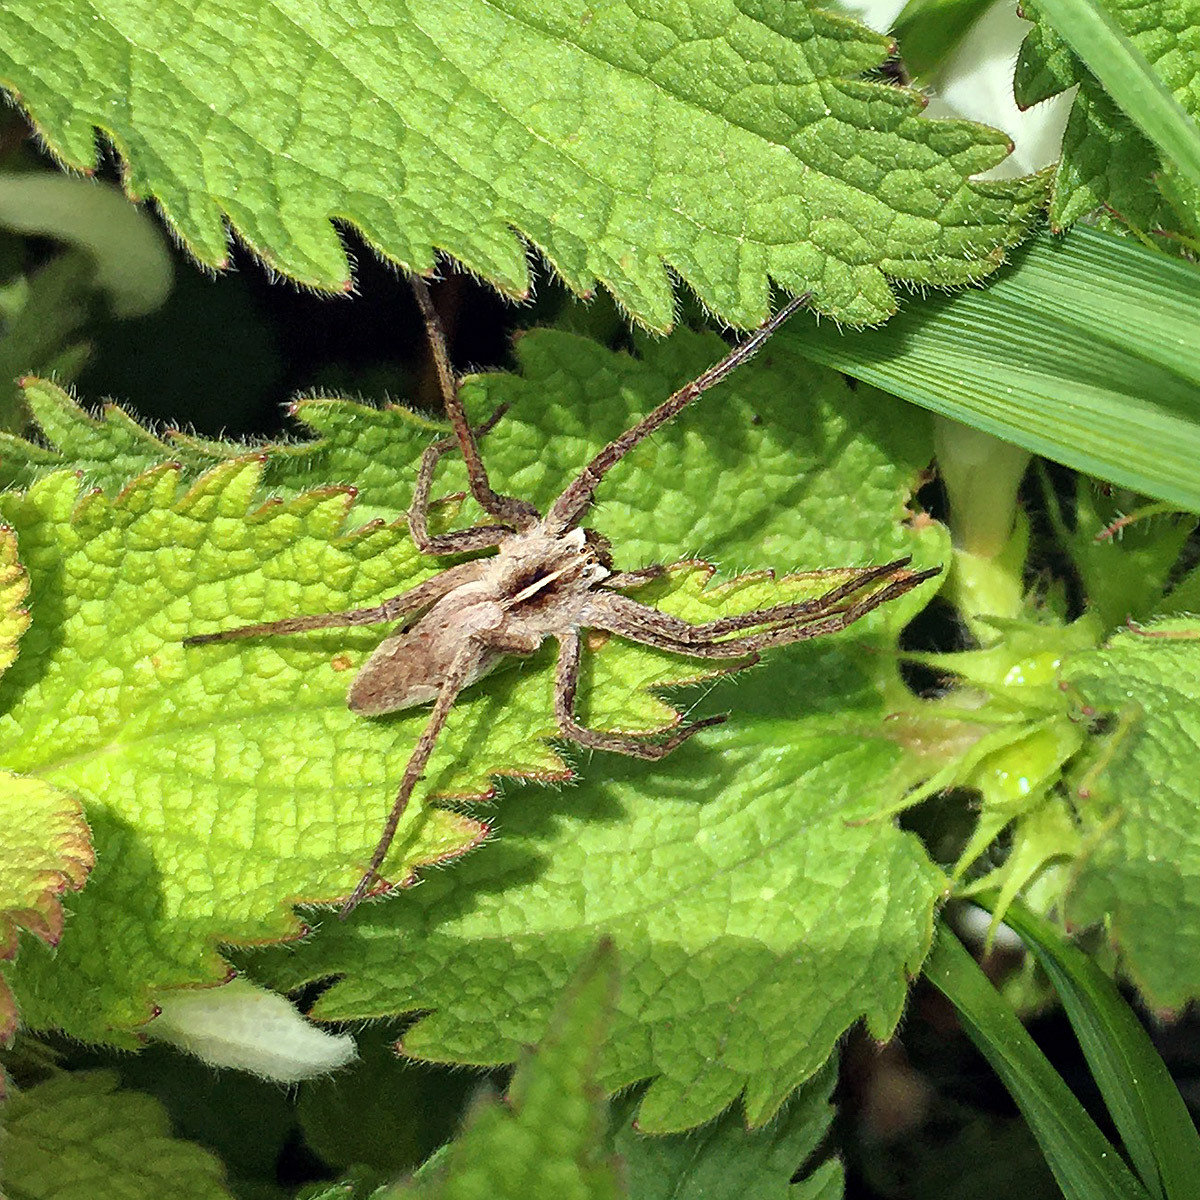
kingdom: Animalia
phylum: Arthropoda
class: Arachnida
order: Araneae
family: Pisauridae
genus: Pisaura
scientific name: Pisaura mirabilis
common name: Tent spider
